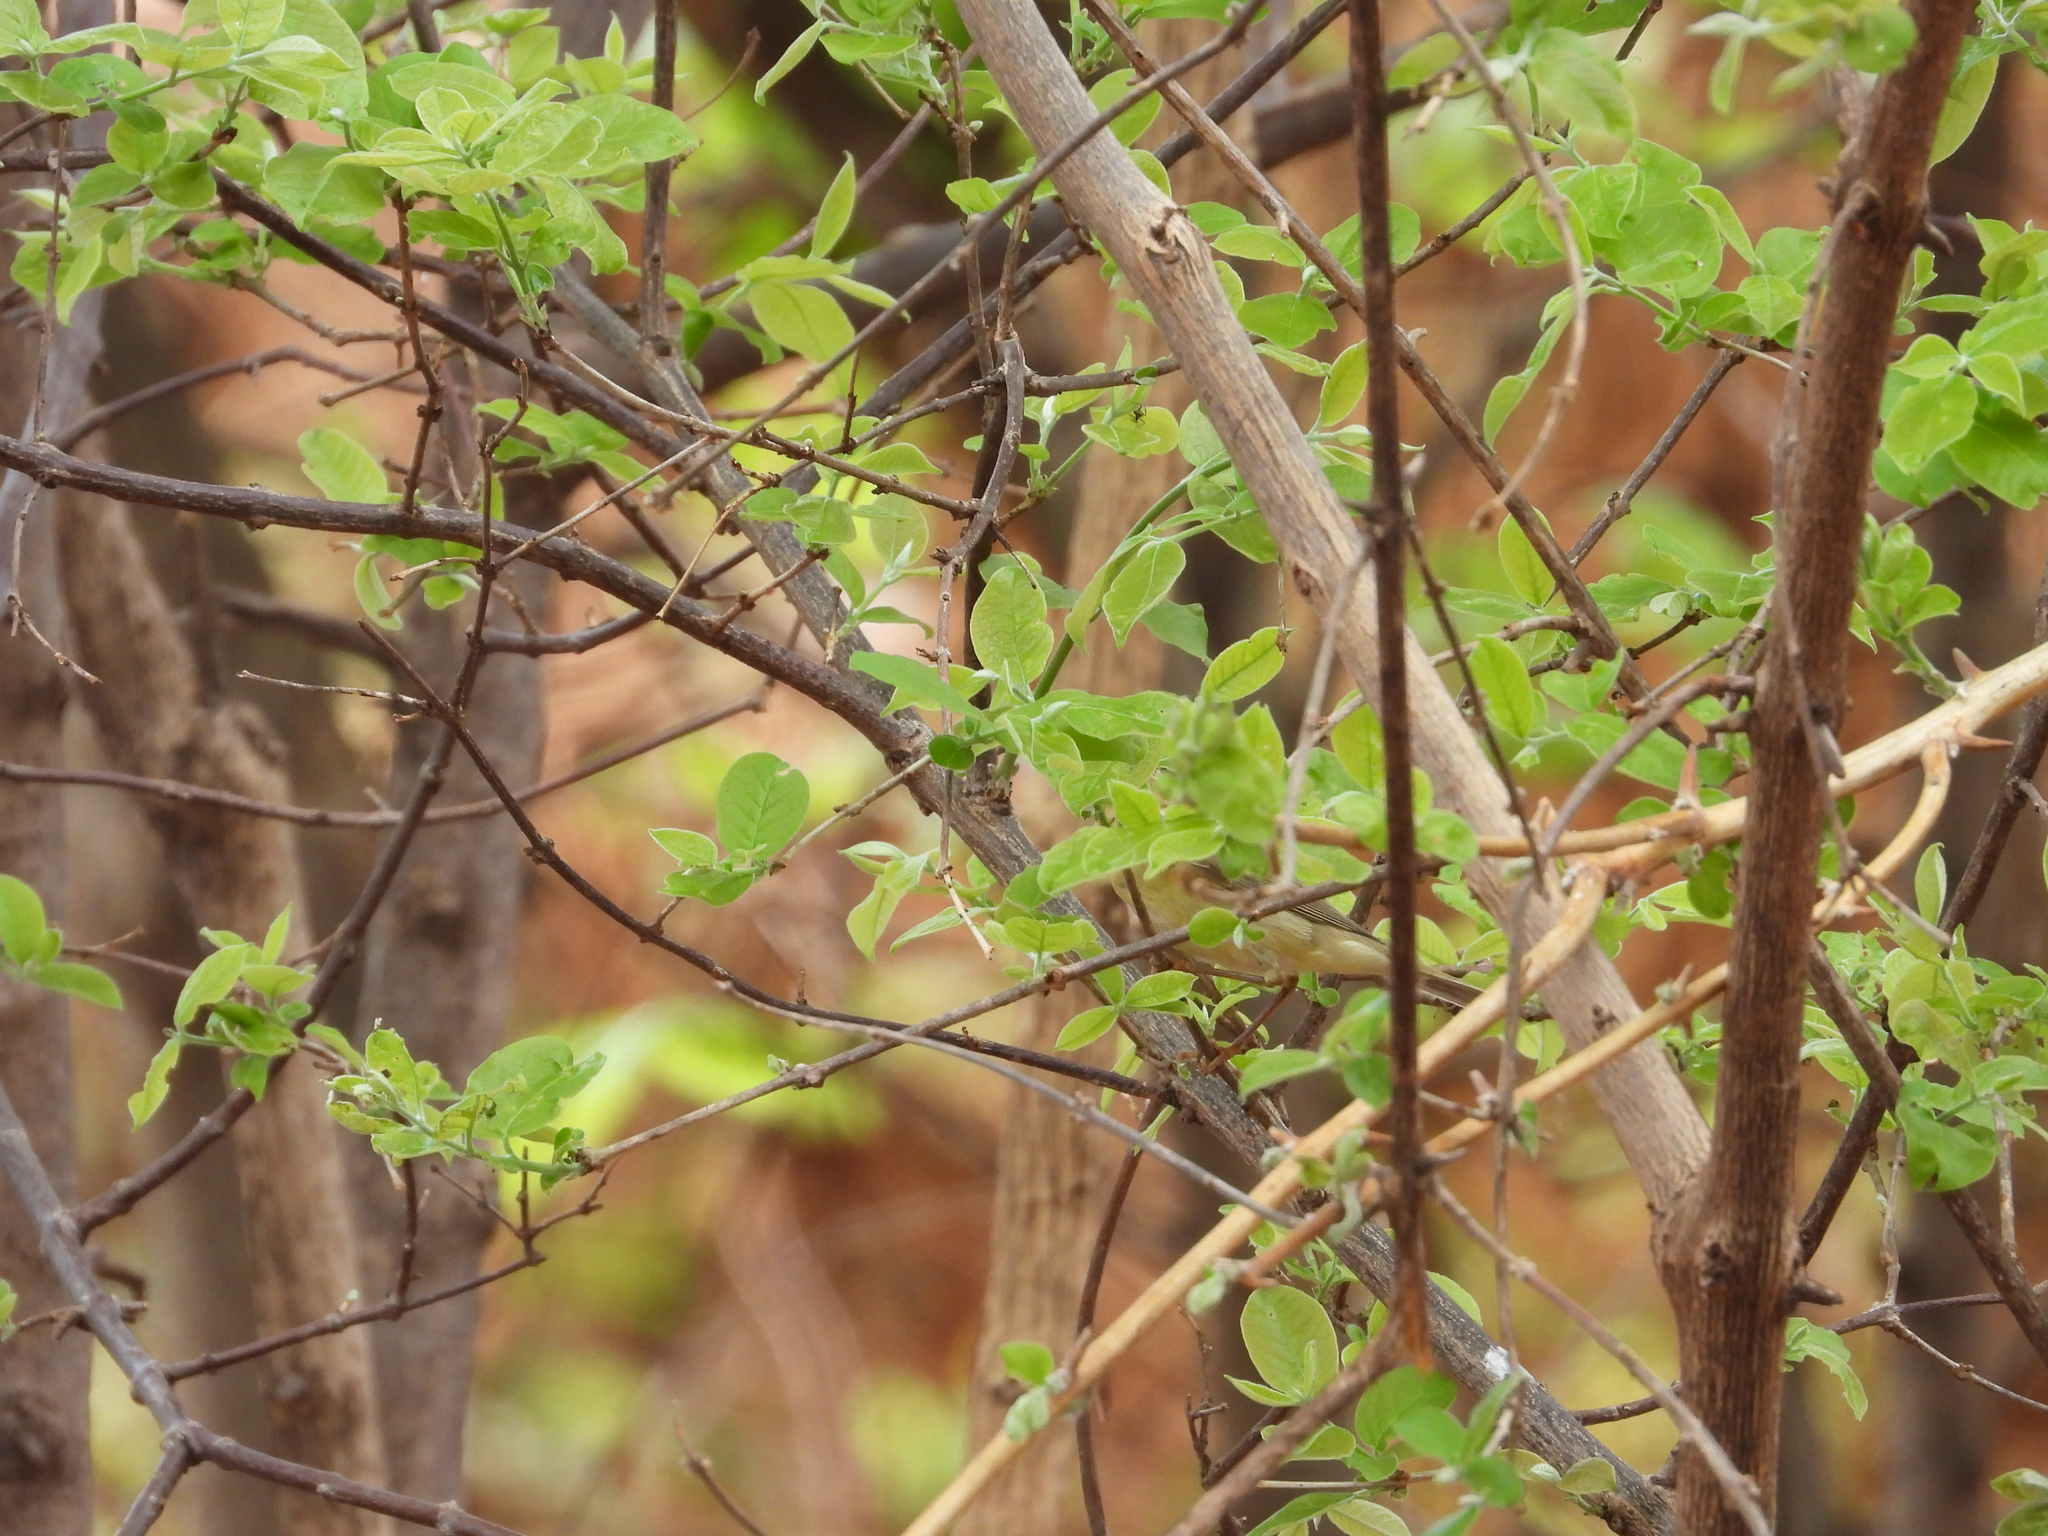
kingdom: Animalia
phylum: Chordata
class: Aves
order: Passeriformes
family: Phylloscopidae
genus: Phylloscopus
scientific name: Phylloscopus trochilus
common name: Willow warbler
